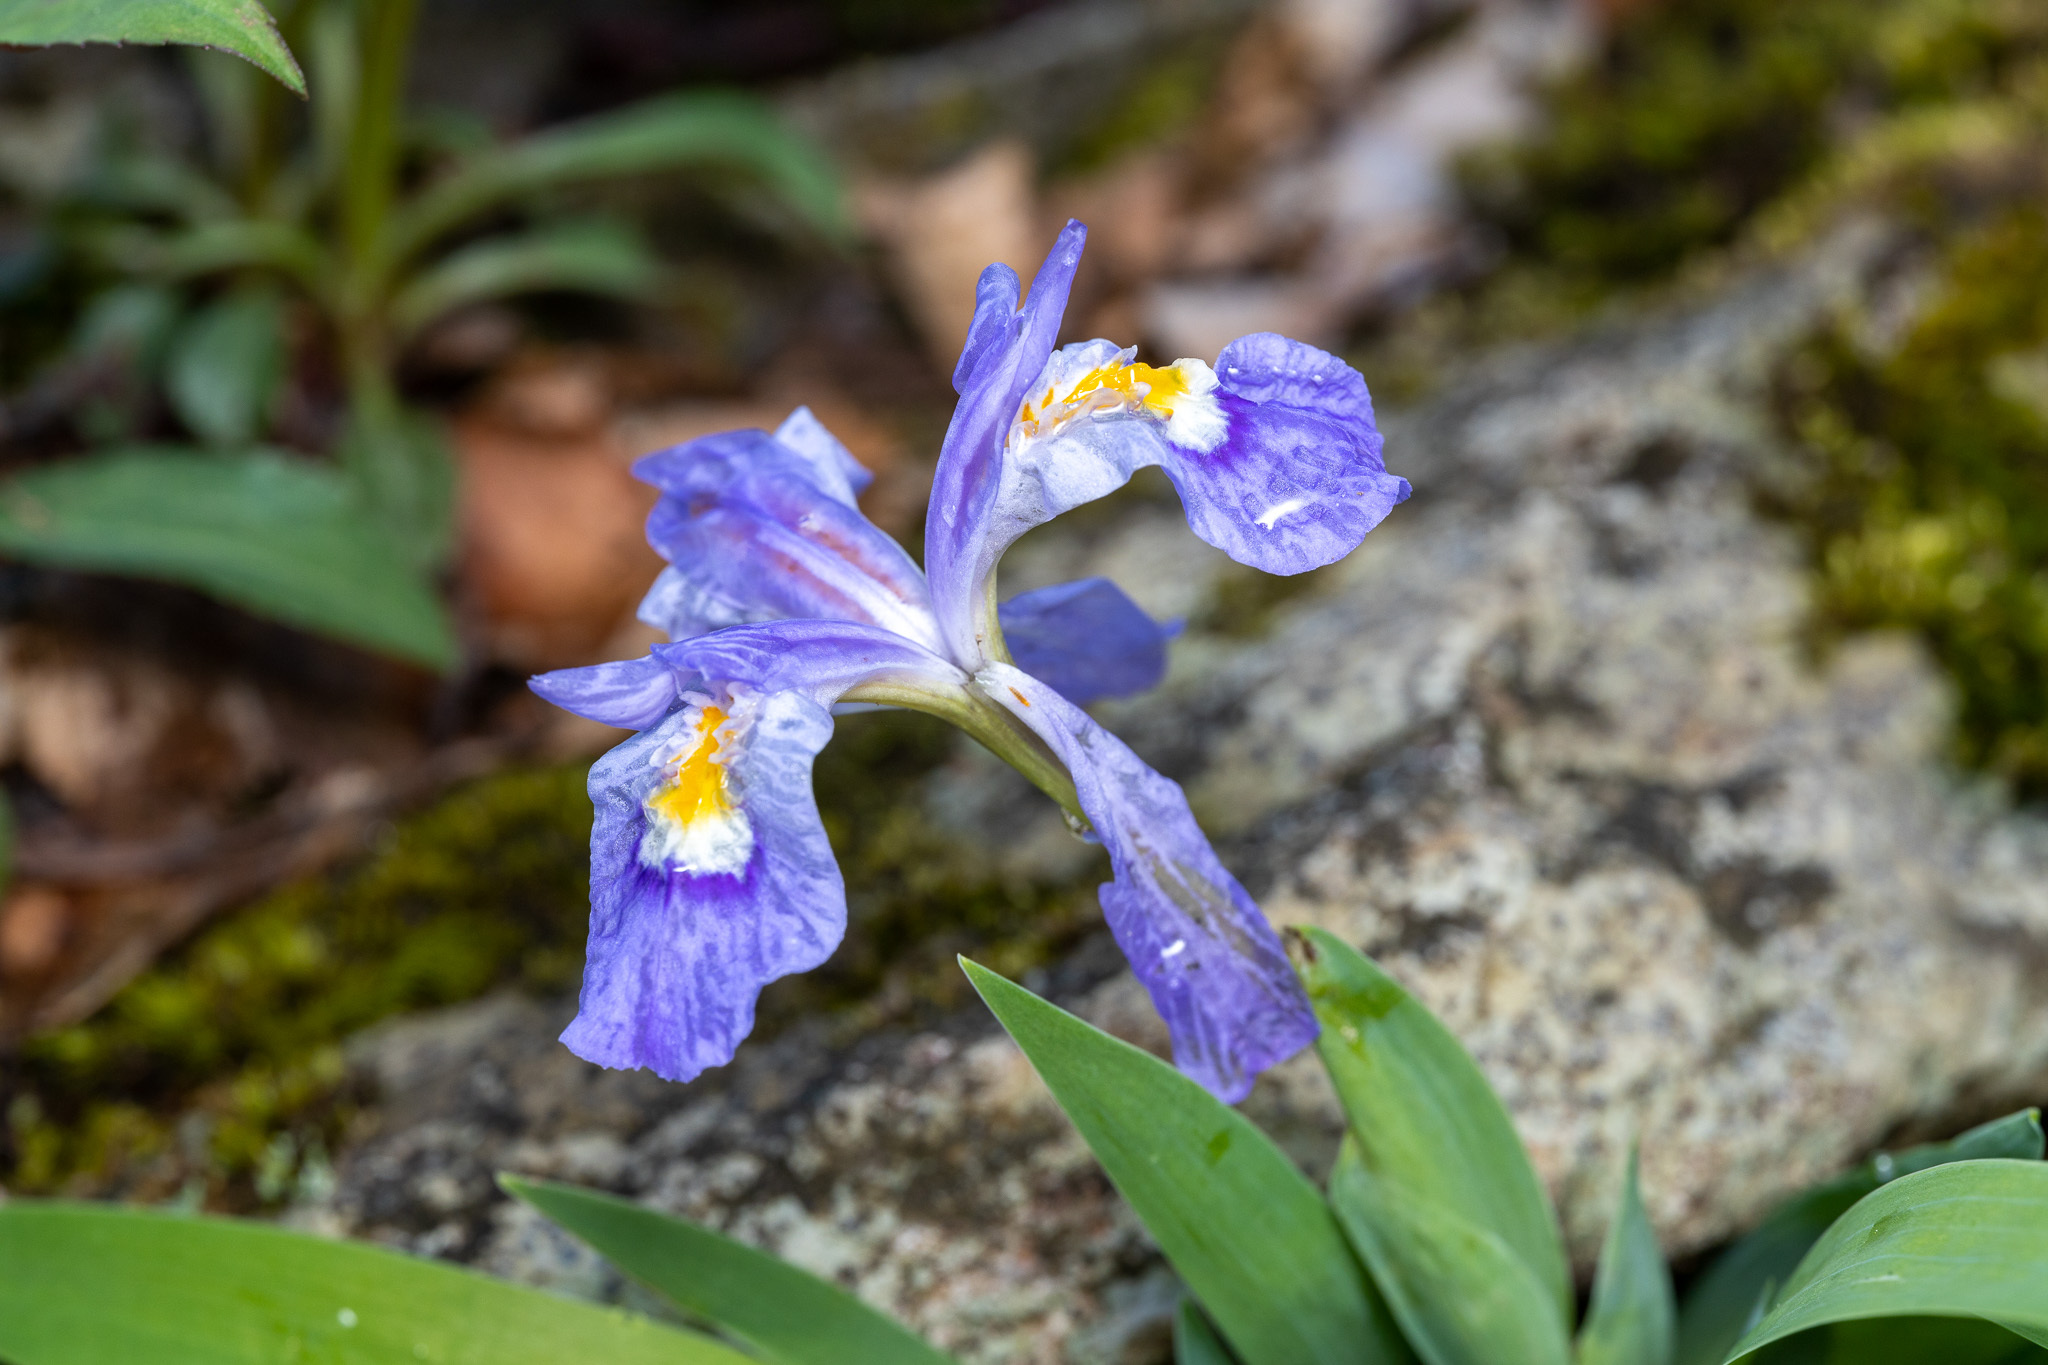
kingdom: Plantae
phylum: Tracheophyta
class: Liliopsida
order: Asparagales
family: Iridaceae
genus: Iris
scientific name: Iris cristata
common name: Crested iris
